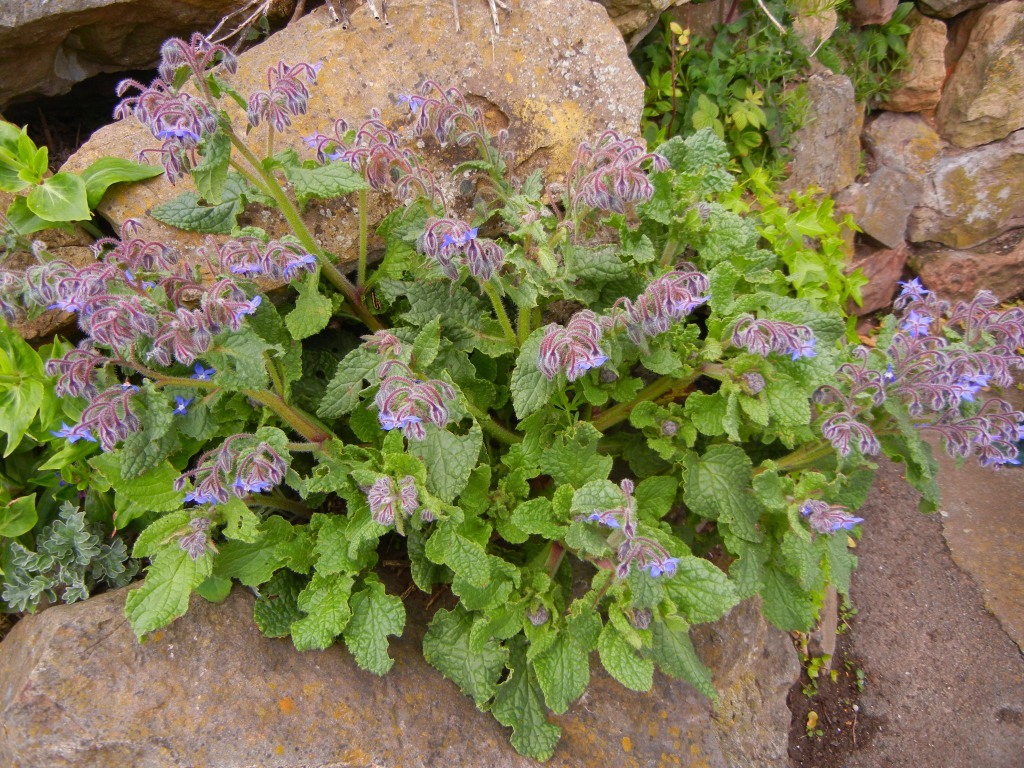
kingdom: Plantae
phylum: Tracheophyta
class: Magnoliopsida
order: Boraginales
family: Boraginaceae
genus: Borago
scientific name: Borago officinalis
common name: Borage
